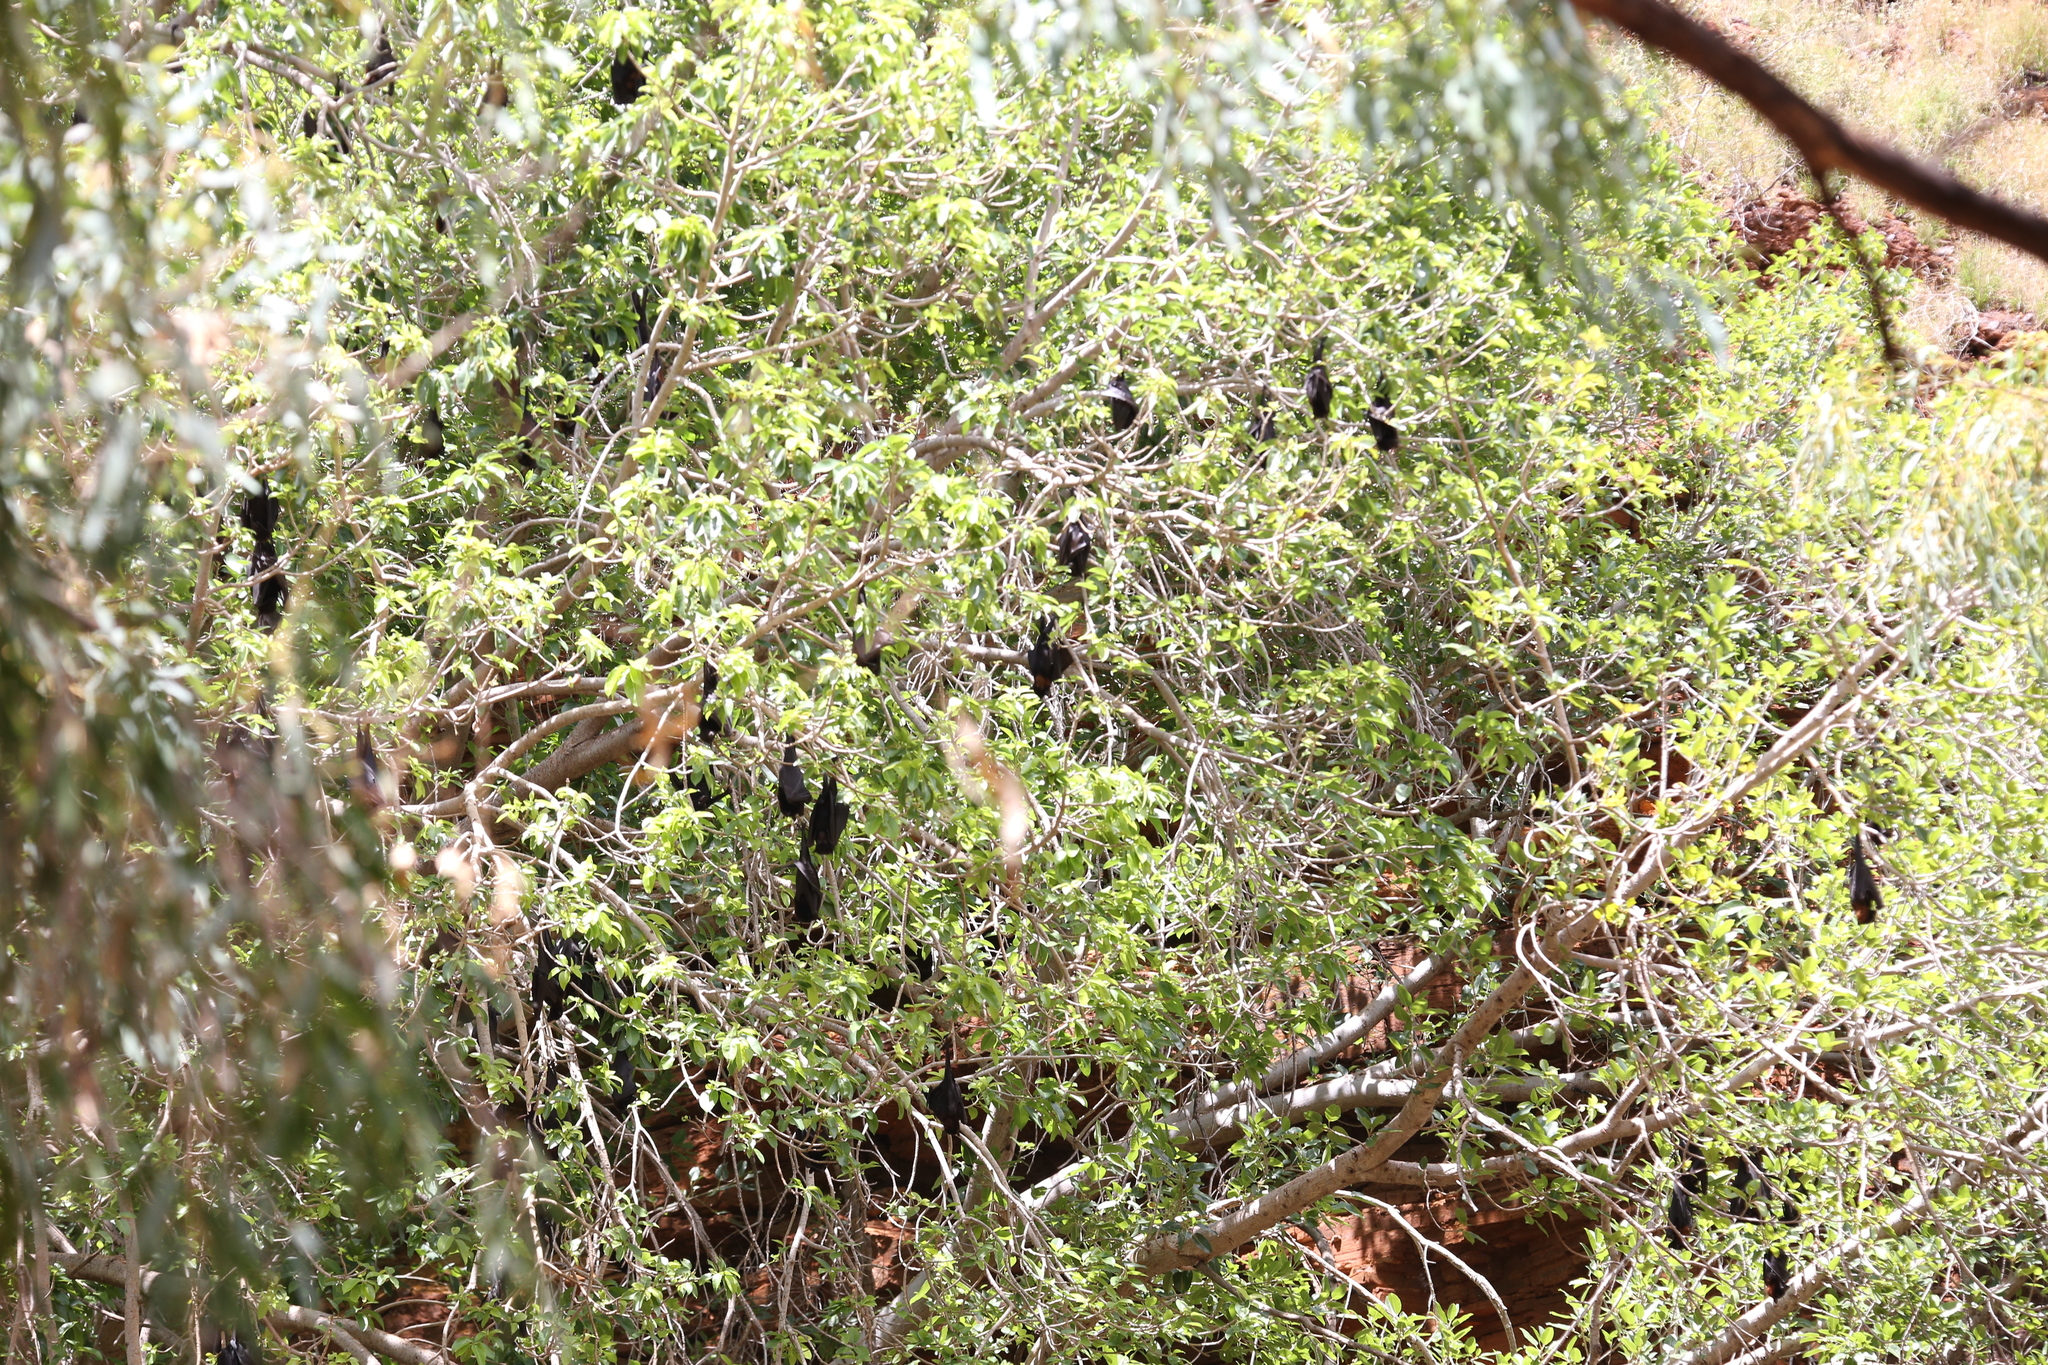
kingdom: Animalia
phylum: Chordata
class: Mammalia
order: Chiroptera
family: Pteropodidae
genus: Pteropus
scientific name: Pteropus alecto
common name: Black flying fox
